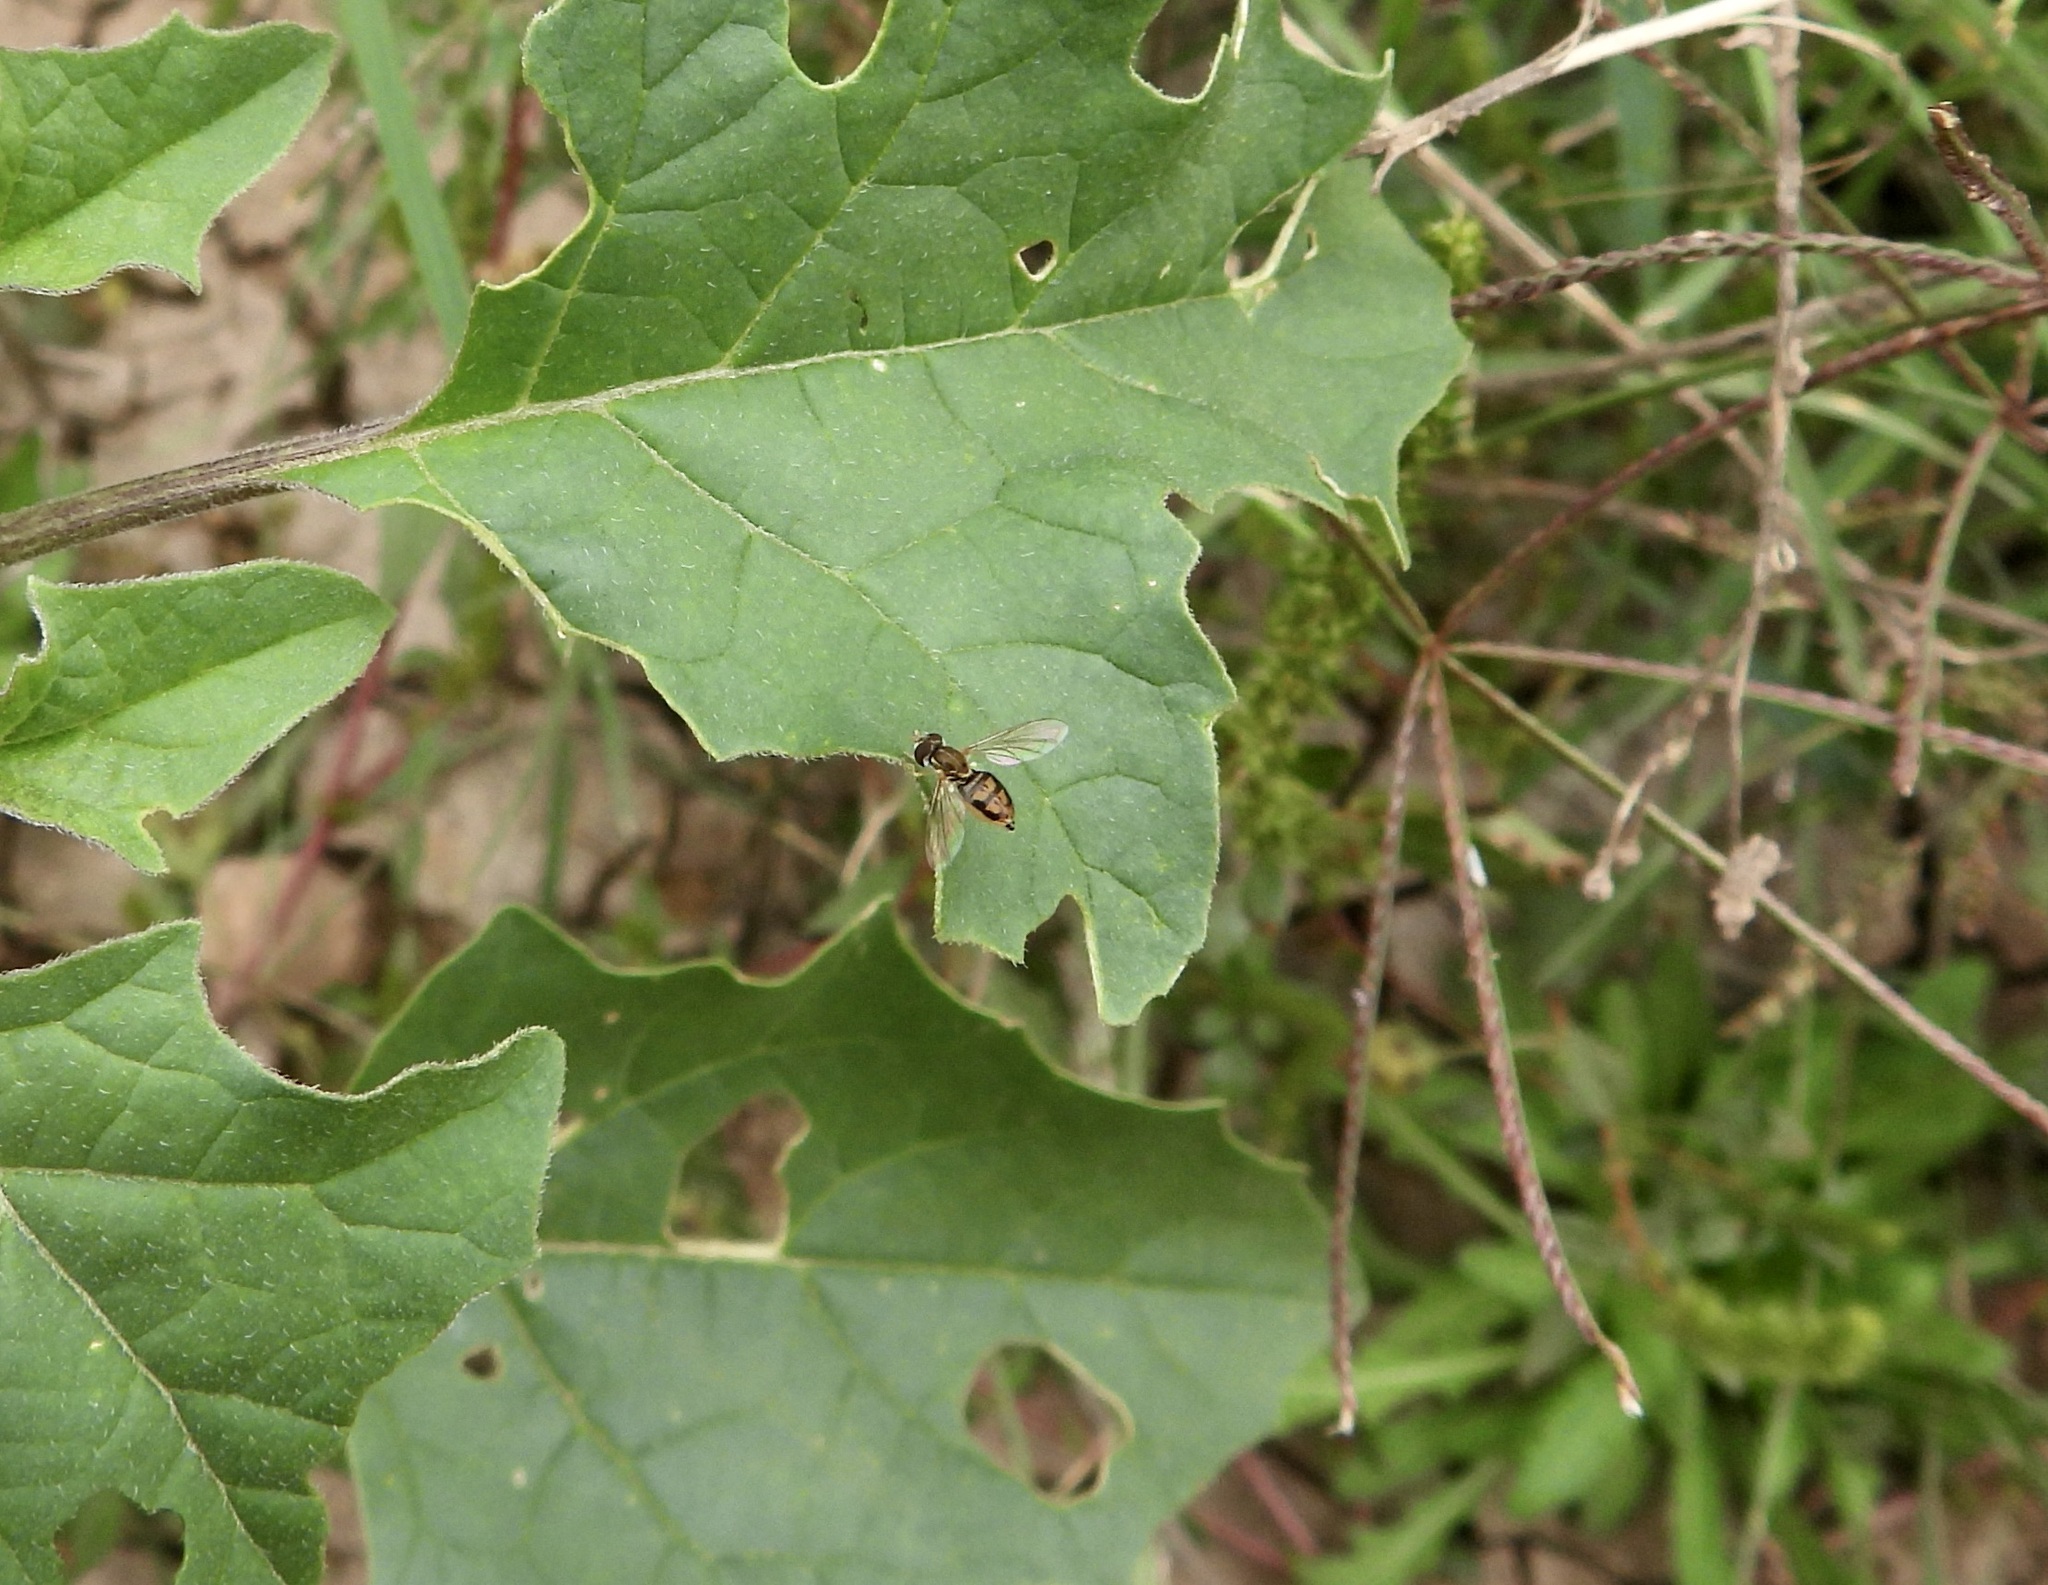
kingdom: Animalia
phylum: Arthropoda
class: Insecta
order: Diptera
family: Syrphidae
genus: Toxomerus
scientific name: Toxomerus marginatus
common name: Syrphid fly
